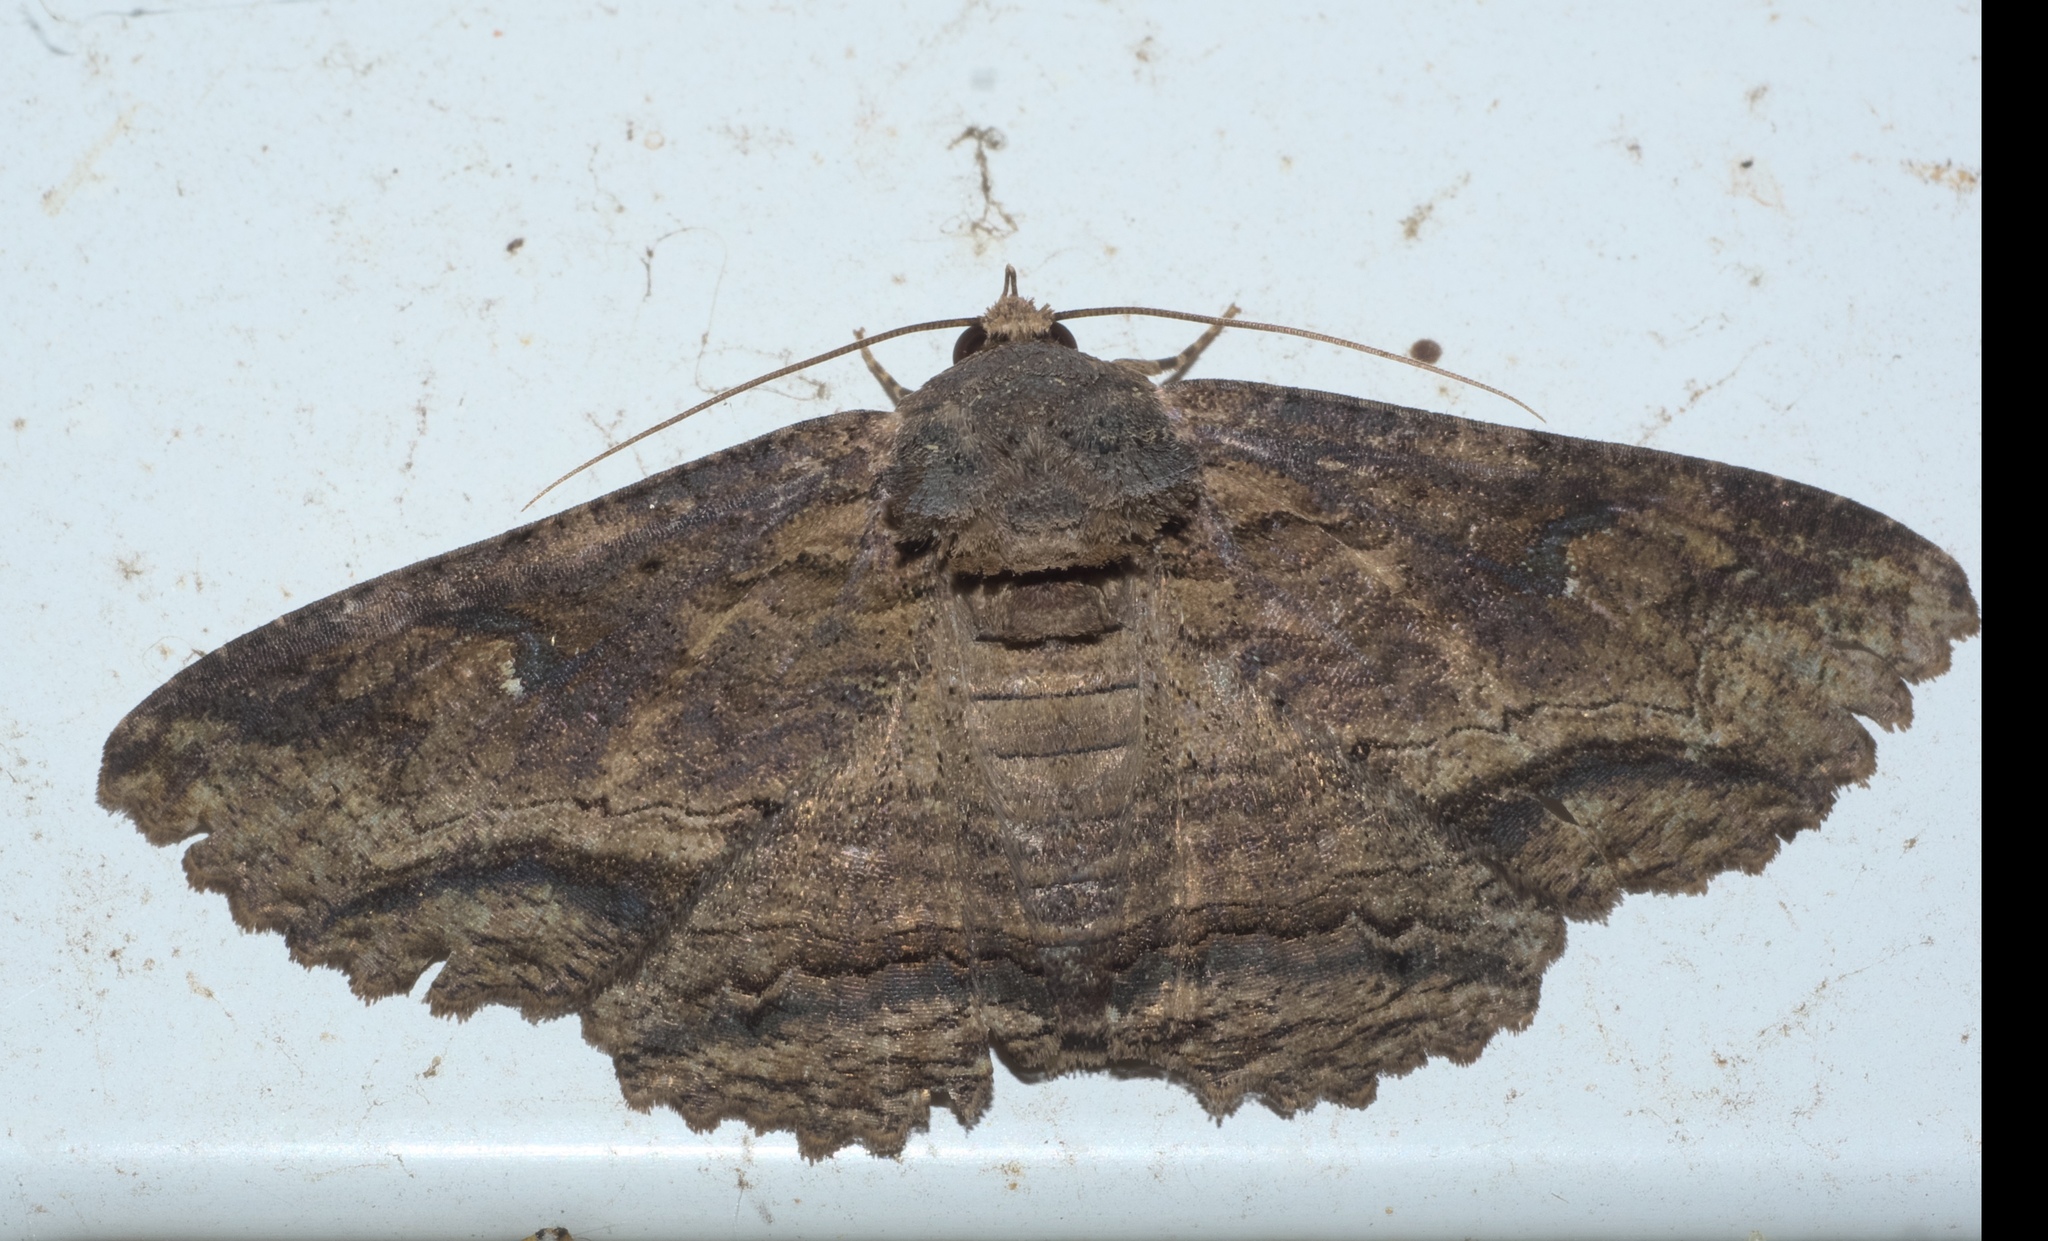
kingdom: Animalia
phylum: Arthropoda
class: Insecta
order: Lepidoptera
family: Erebidae
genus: Zale
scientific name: Zale lunata
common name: Lunate zale moth
